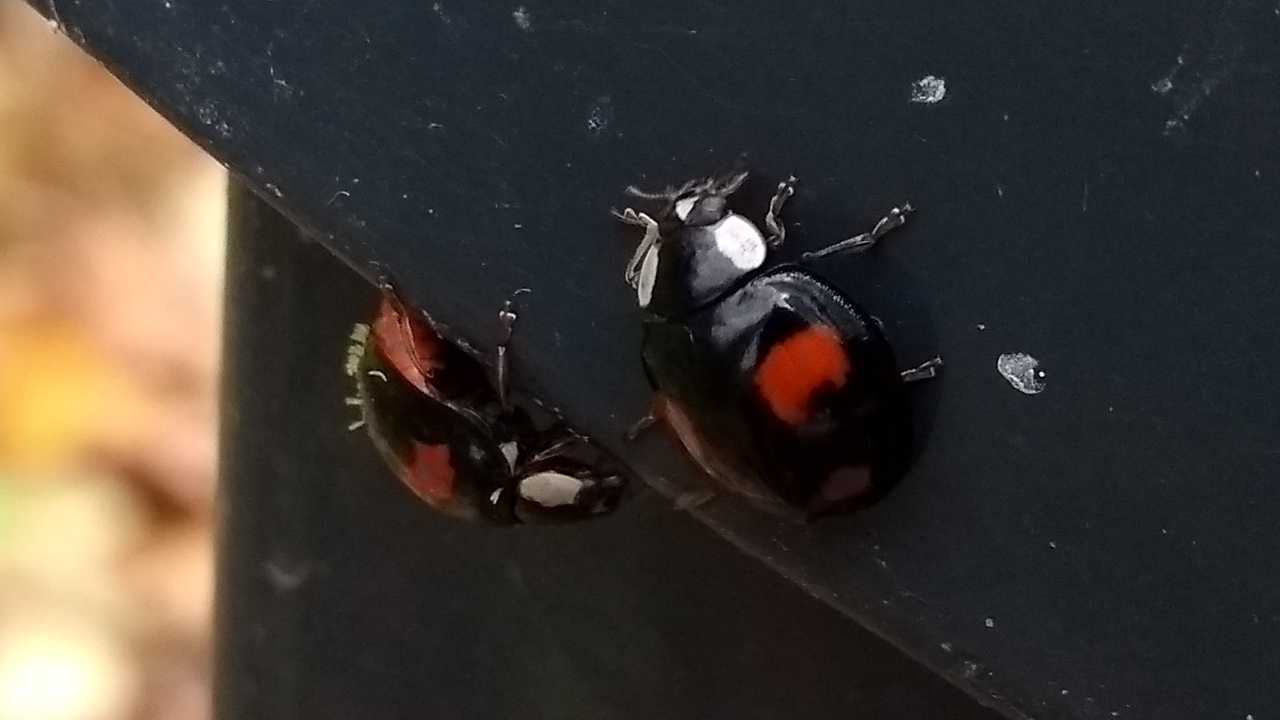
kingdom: Fungi
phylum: Ascomycota
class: Laboulbeniomycetes
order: Laboulbeniales
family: Laboulbeniaceae
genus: Hesperomyces
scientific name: Hesperomyces harmoniae
